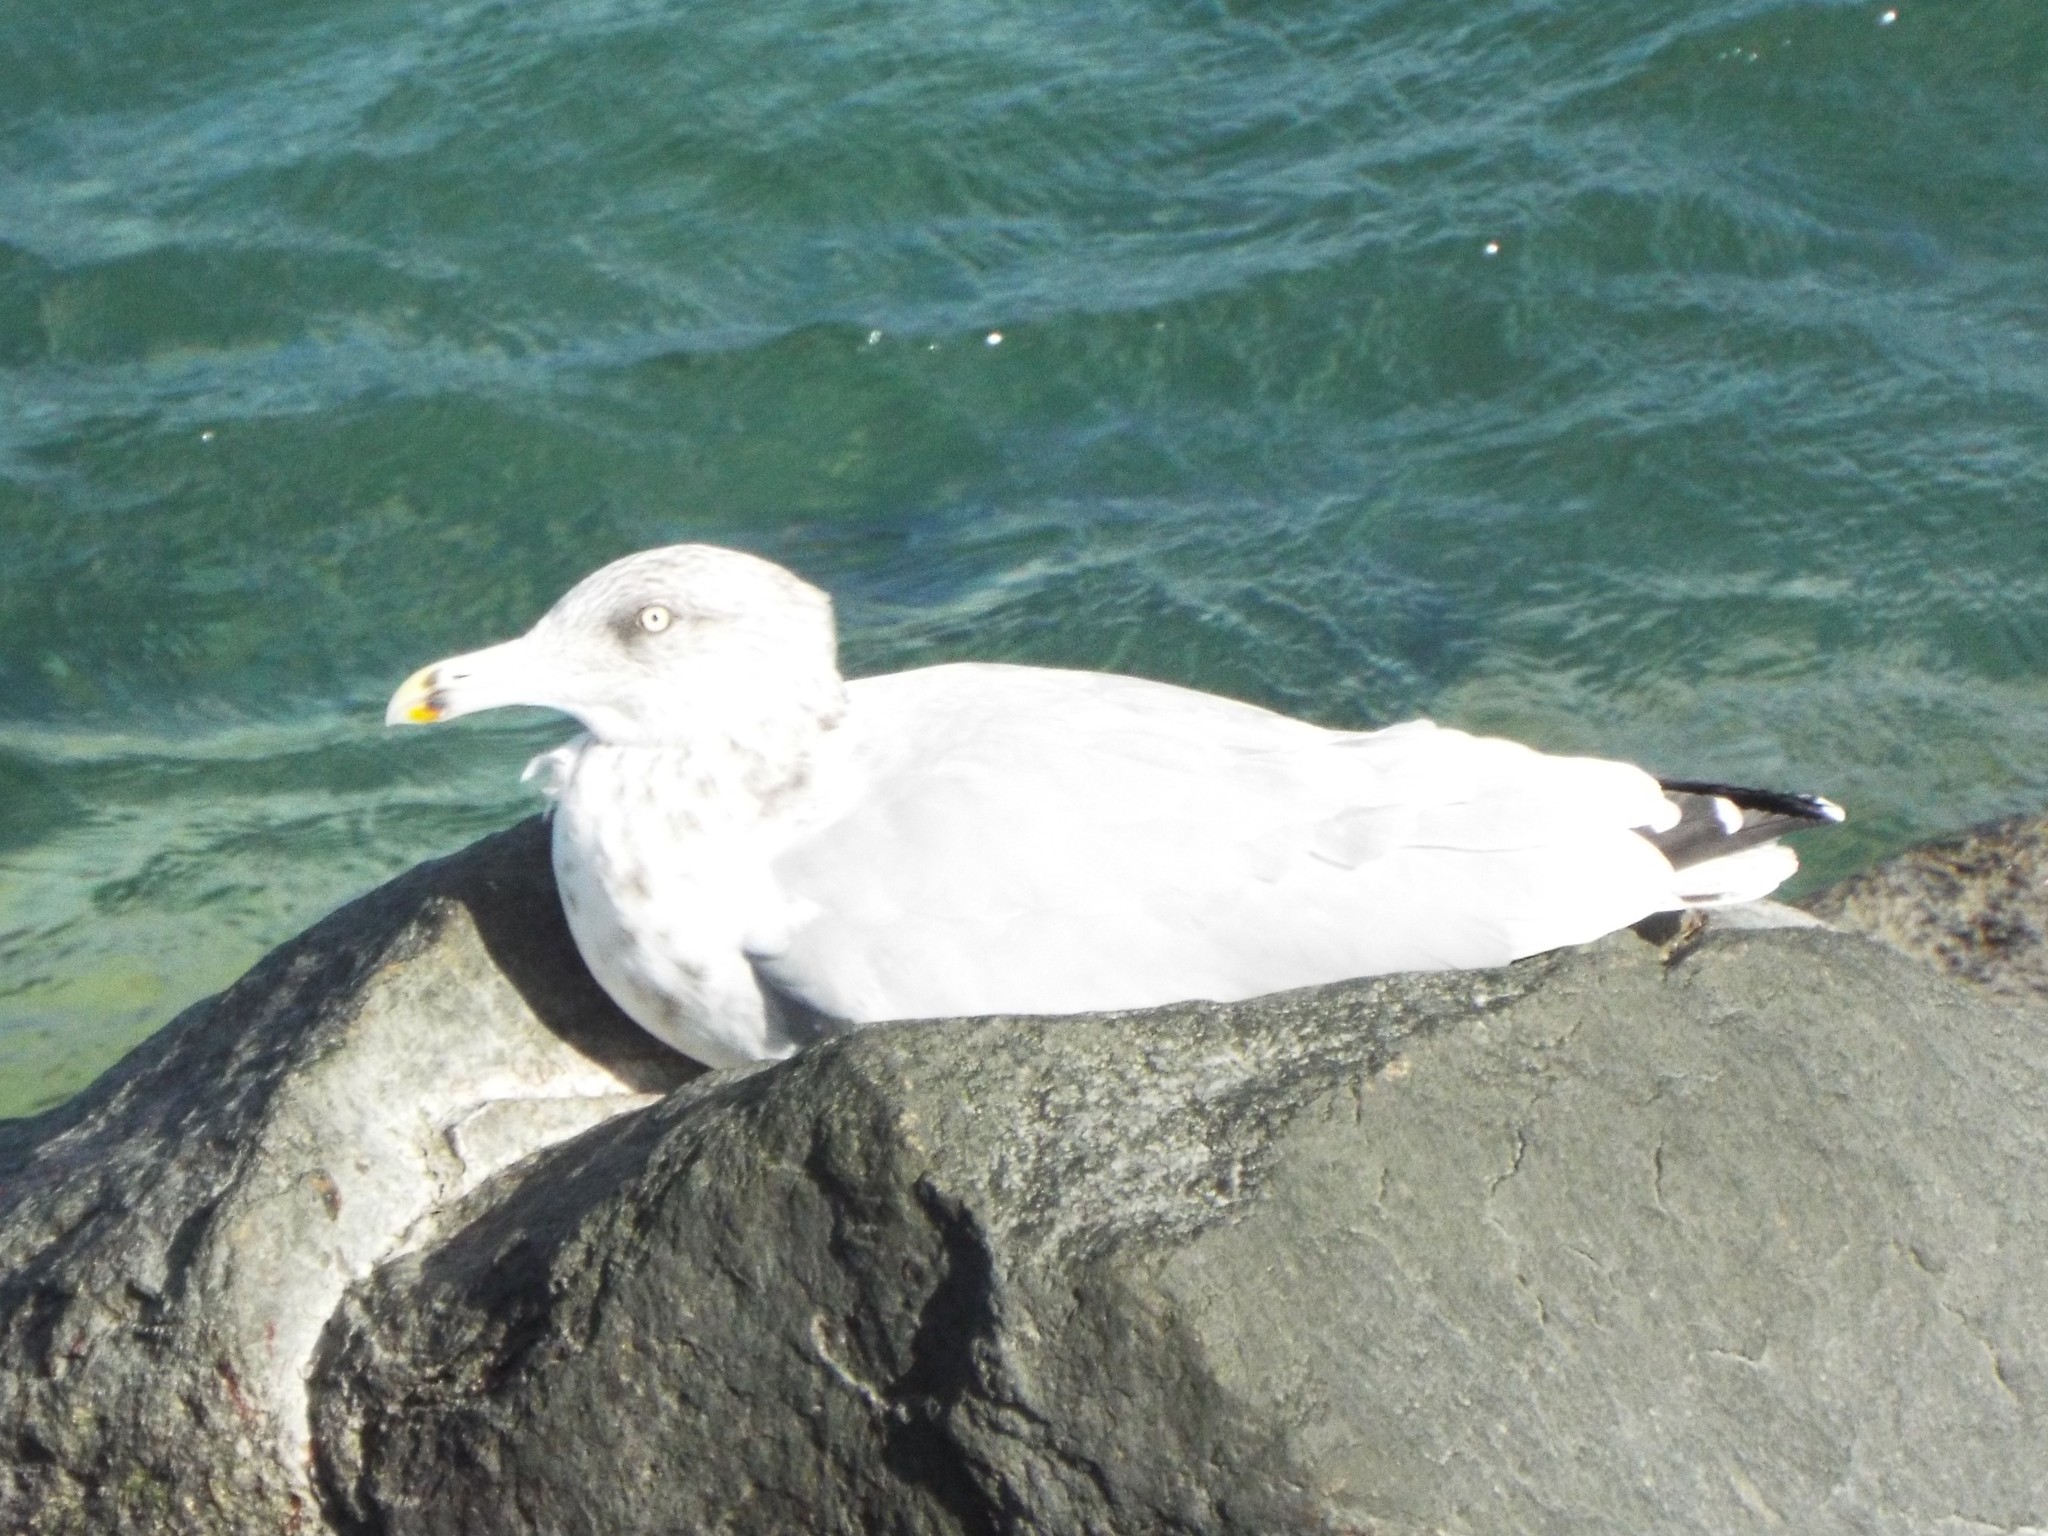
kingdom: Animalia
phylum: Chordata
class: Aves
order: Charadriiformes
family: Laridae
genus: Larus
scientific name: Larus argentatus
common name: Herring gull
